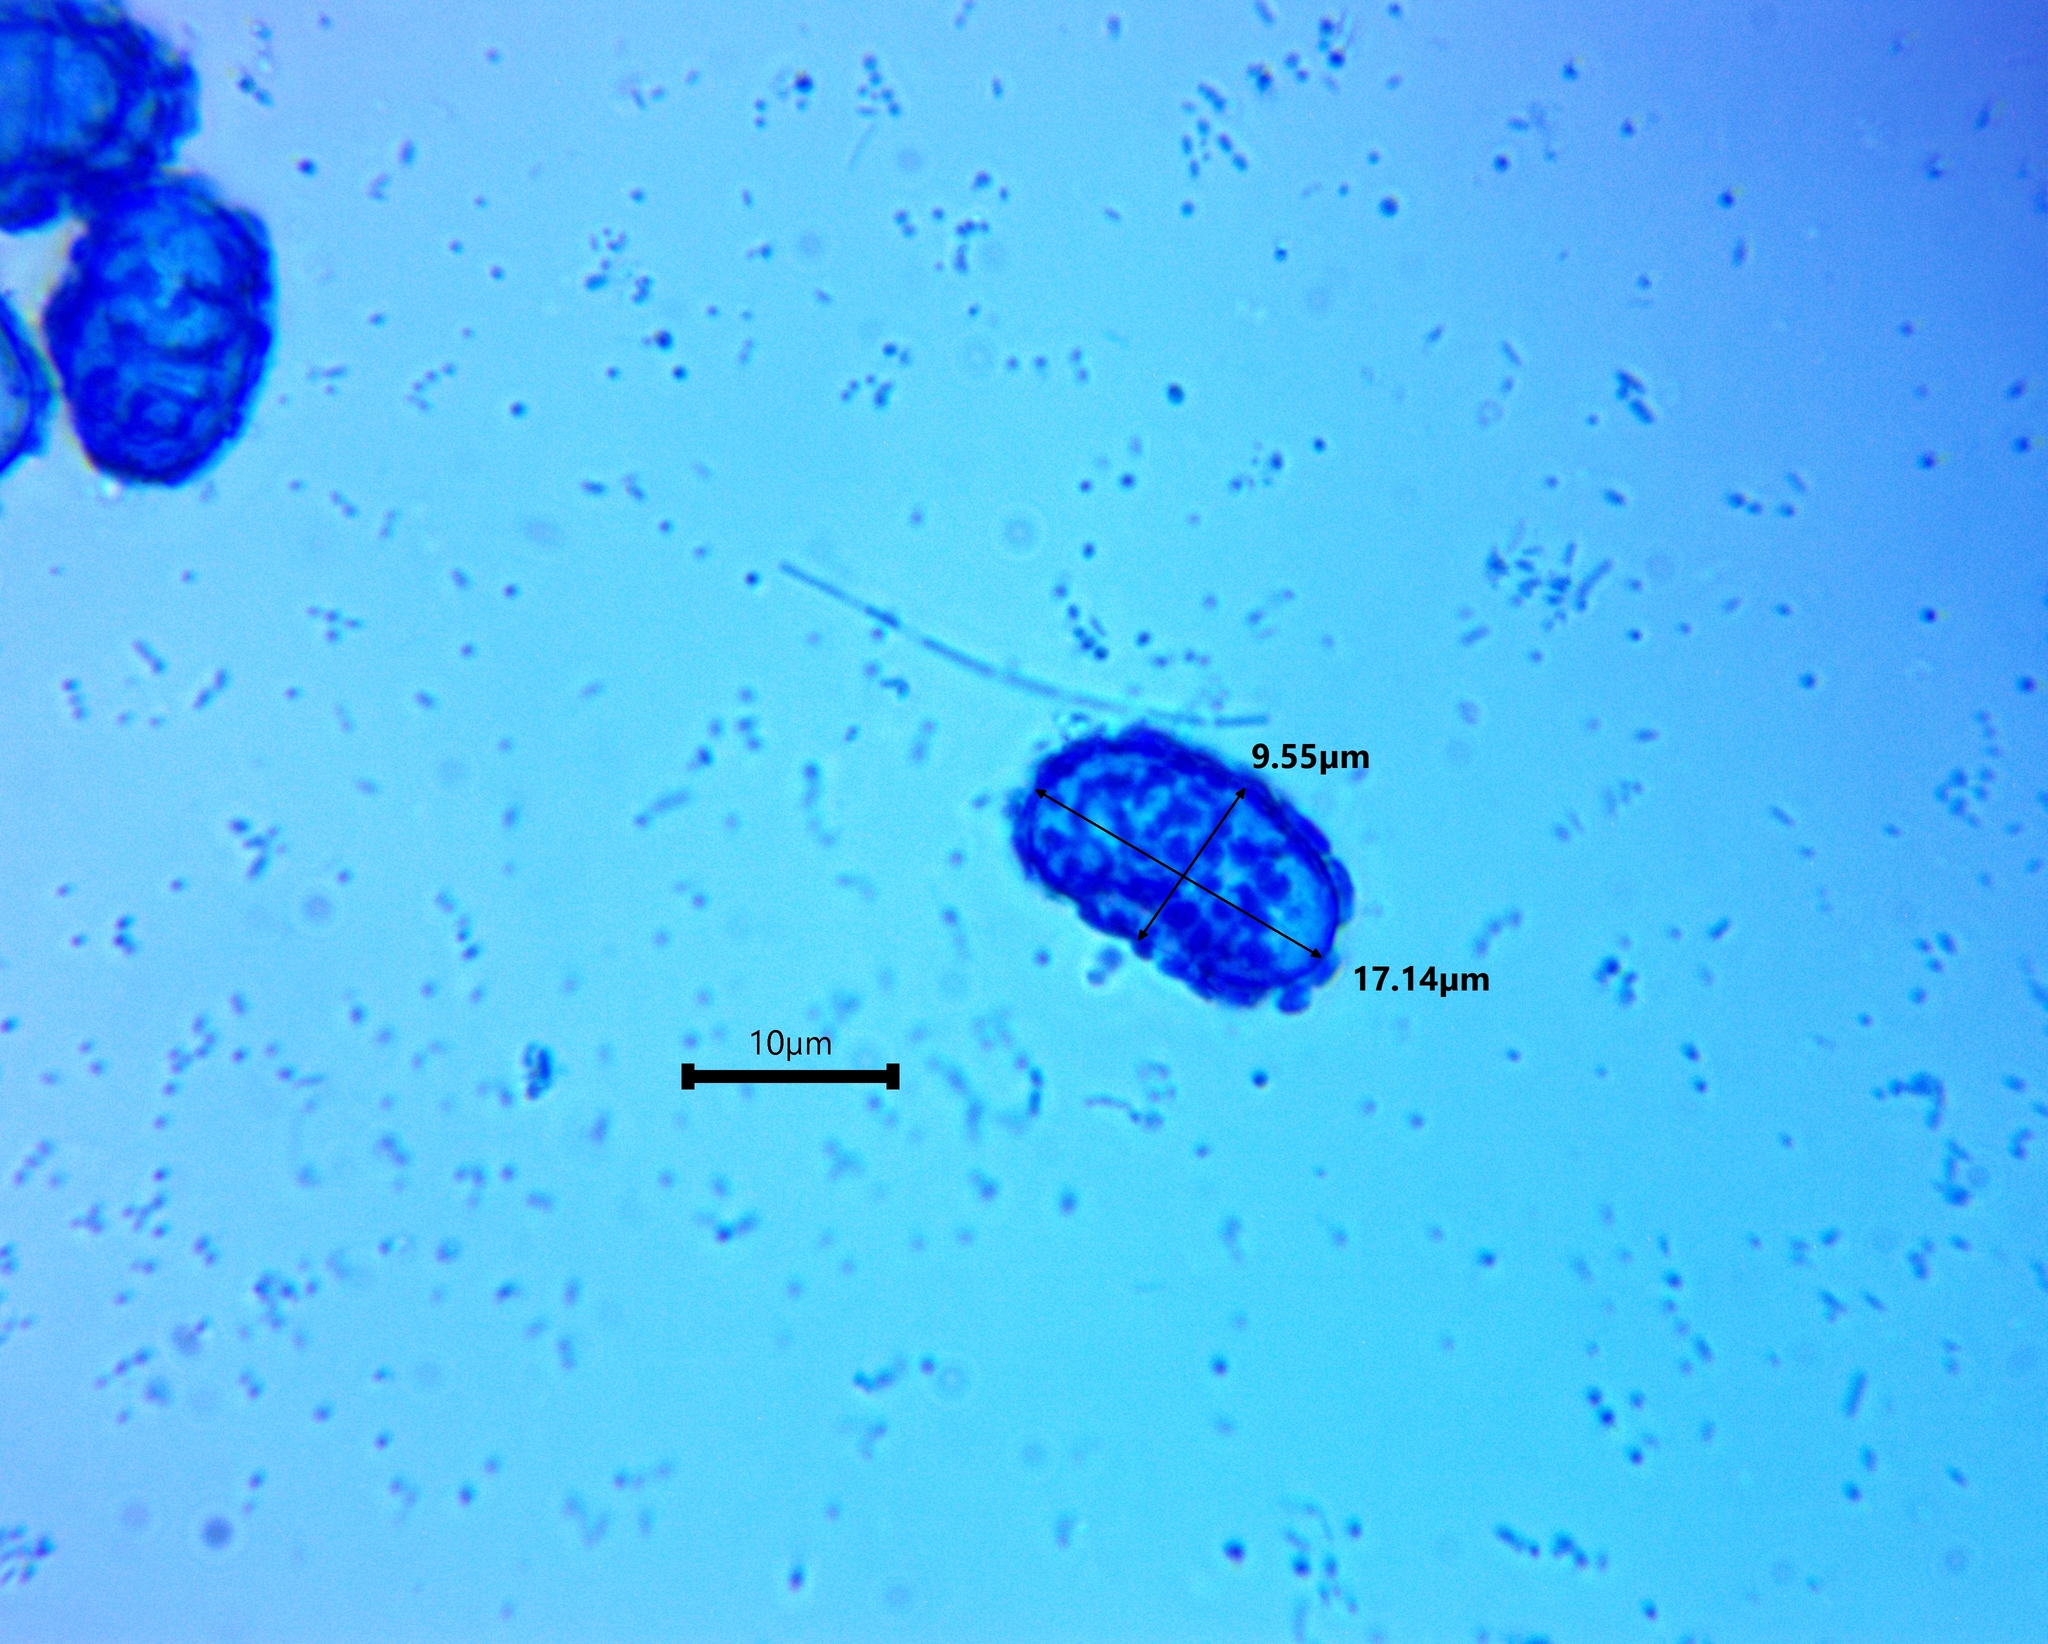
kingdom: Fungi
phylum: Ascomycota
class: Pezizomycetes
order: Pezizales
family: Pyronemataceae
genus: Scutellinia
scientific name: Scutellinia pennsylvanica
